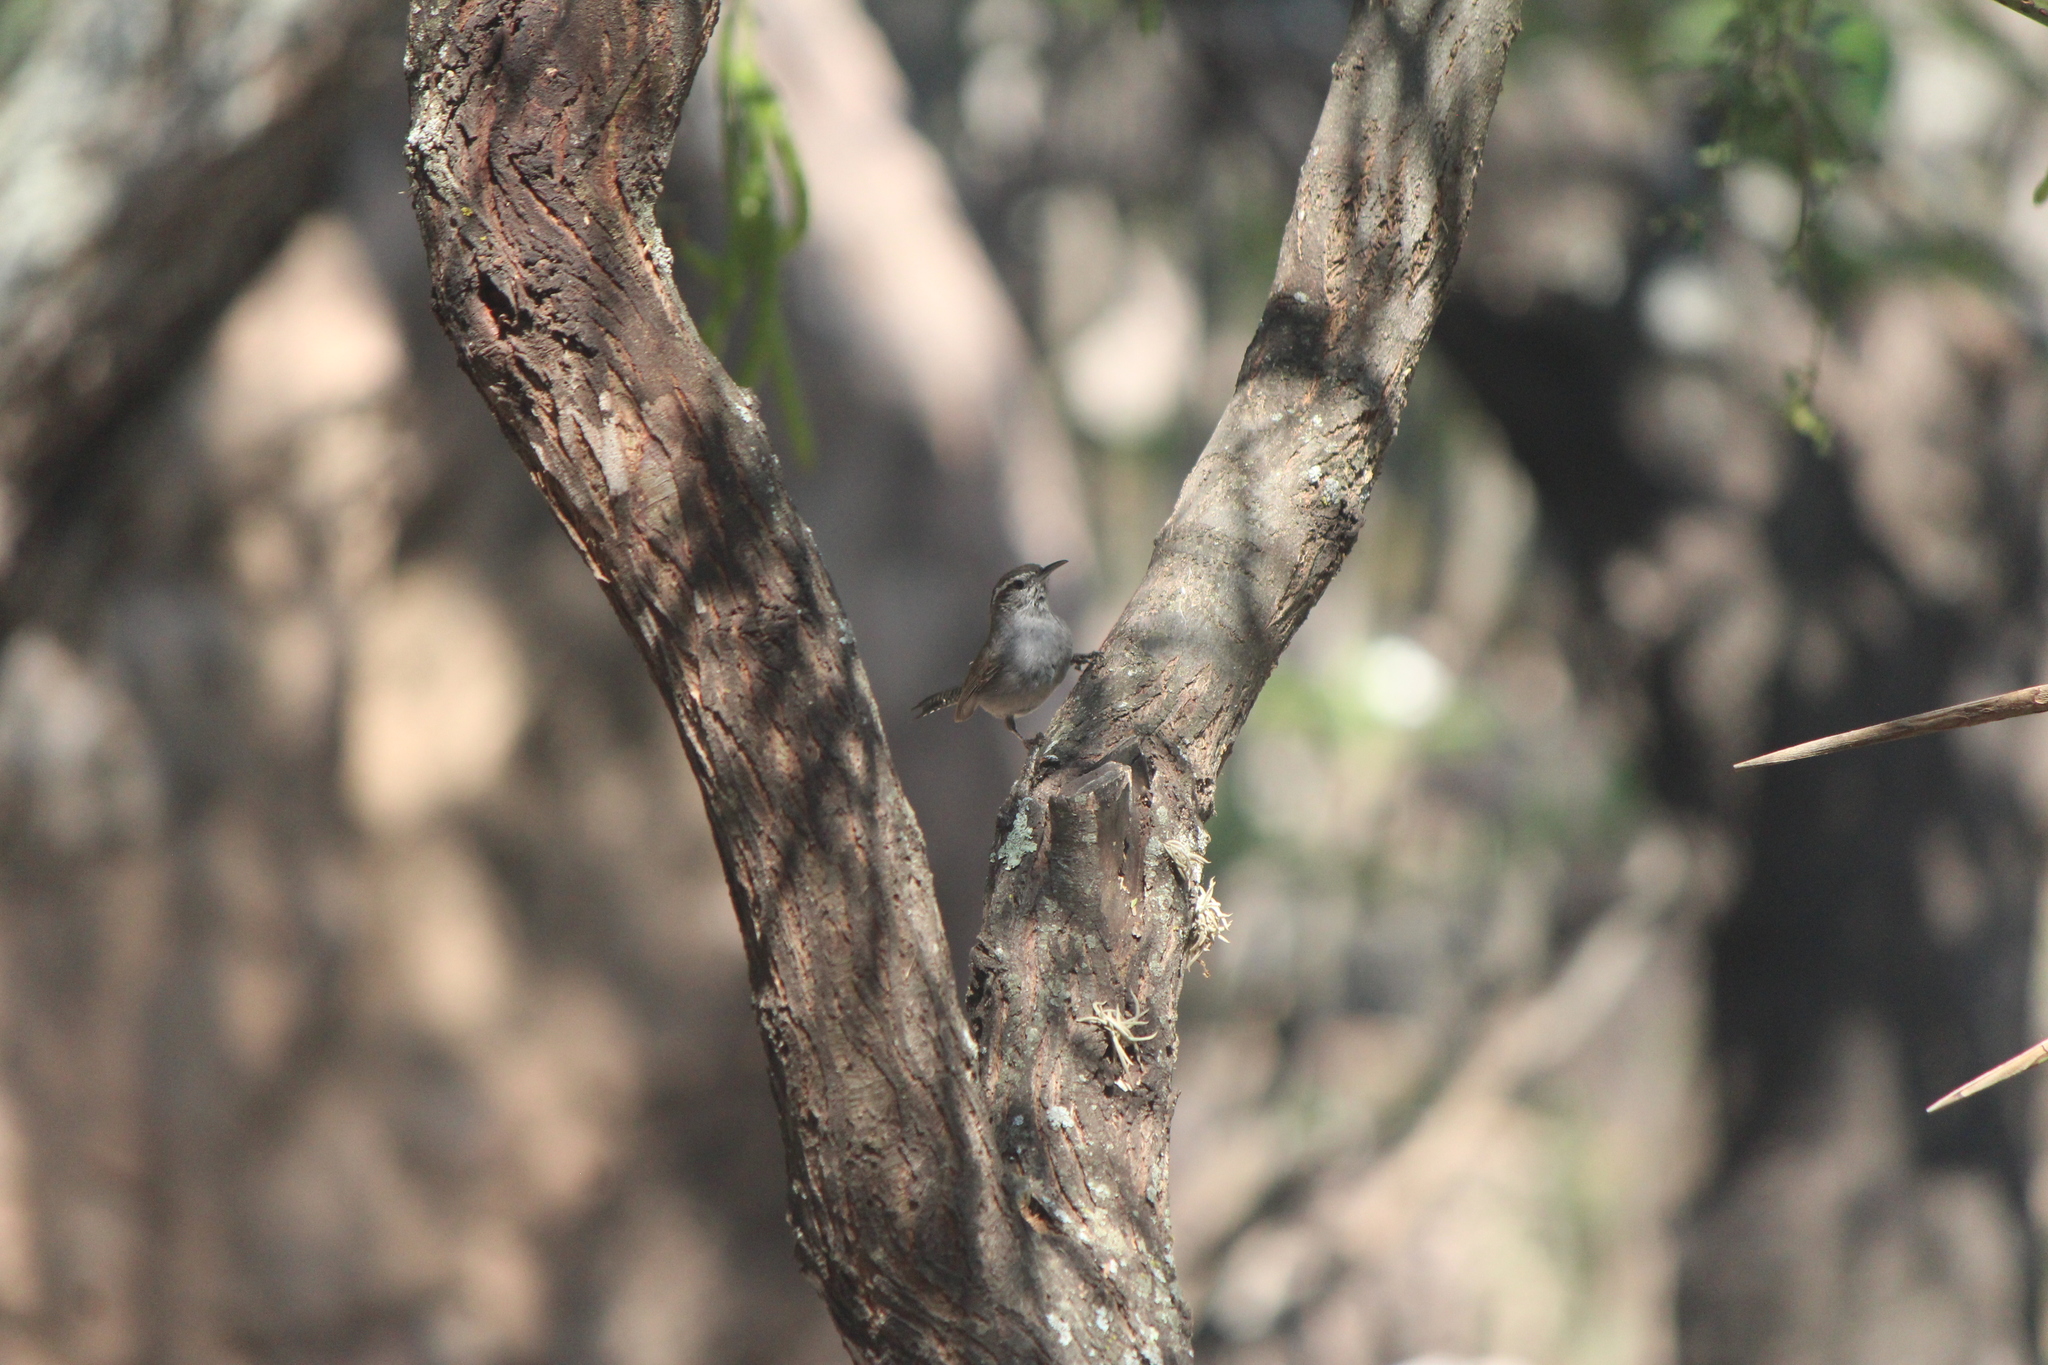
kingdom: Animalia
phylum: Chordata
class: Aves
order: Passeriformes
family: Troglodytidae
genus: Thryomanes
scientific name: Thryomanes bewickii
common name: Bewick's wren
